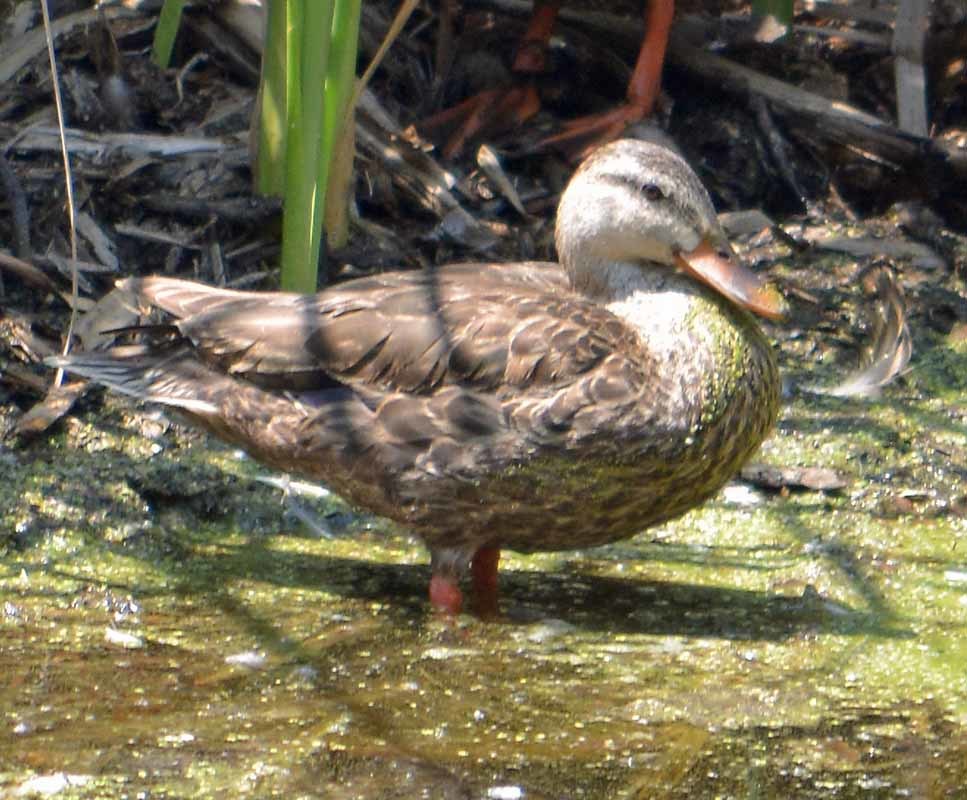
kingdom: Animalia
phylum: Chordata
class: Aves
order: Anseriformes
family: Anatidae
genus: Anas
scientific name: Anas diazi
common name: Mexican duck
